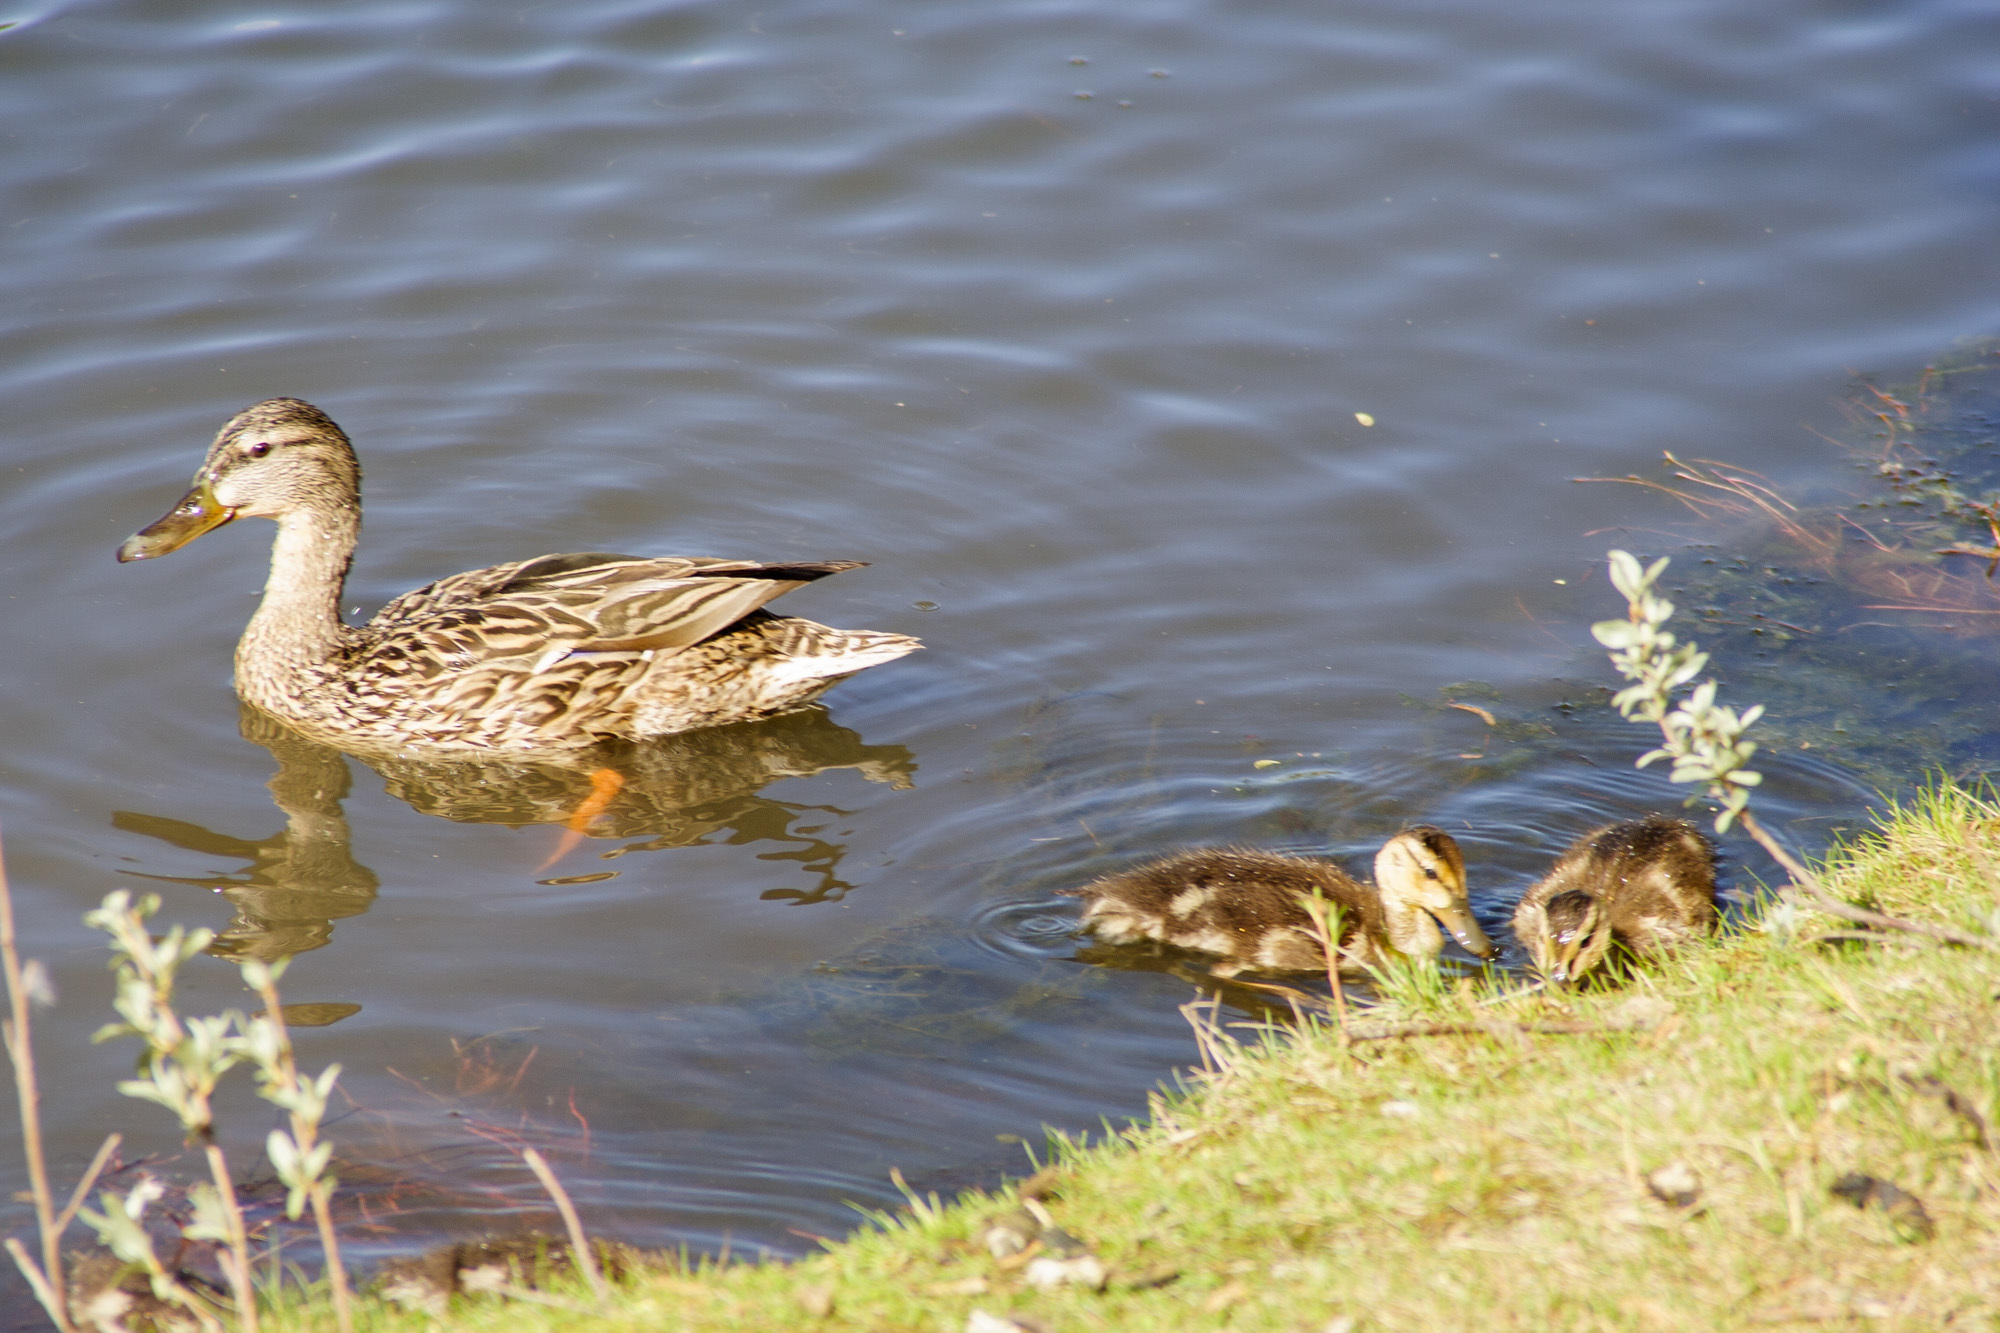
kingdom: Animalia
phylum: Chordata
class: Aves
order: Anseriformes
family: Anatidae
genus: Anas
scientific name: Anas platyrhynchos
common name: Mallard
